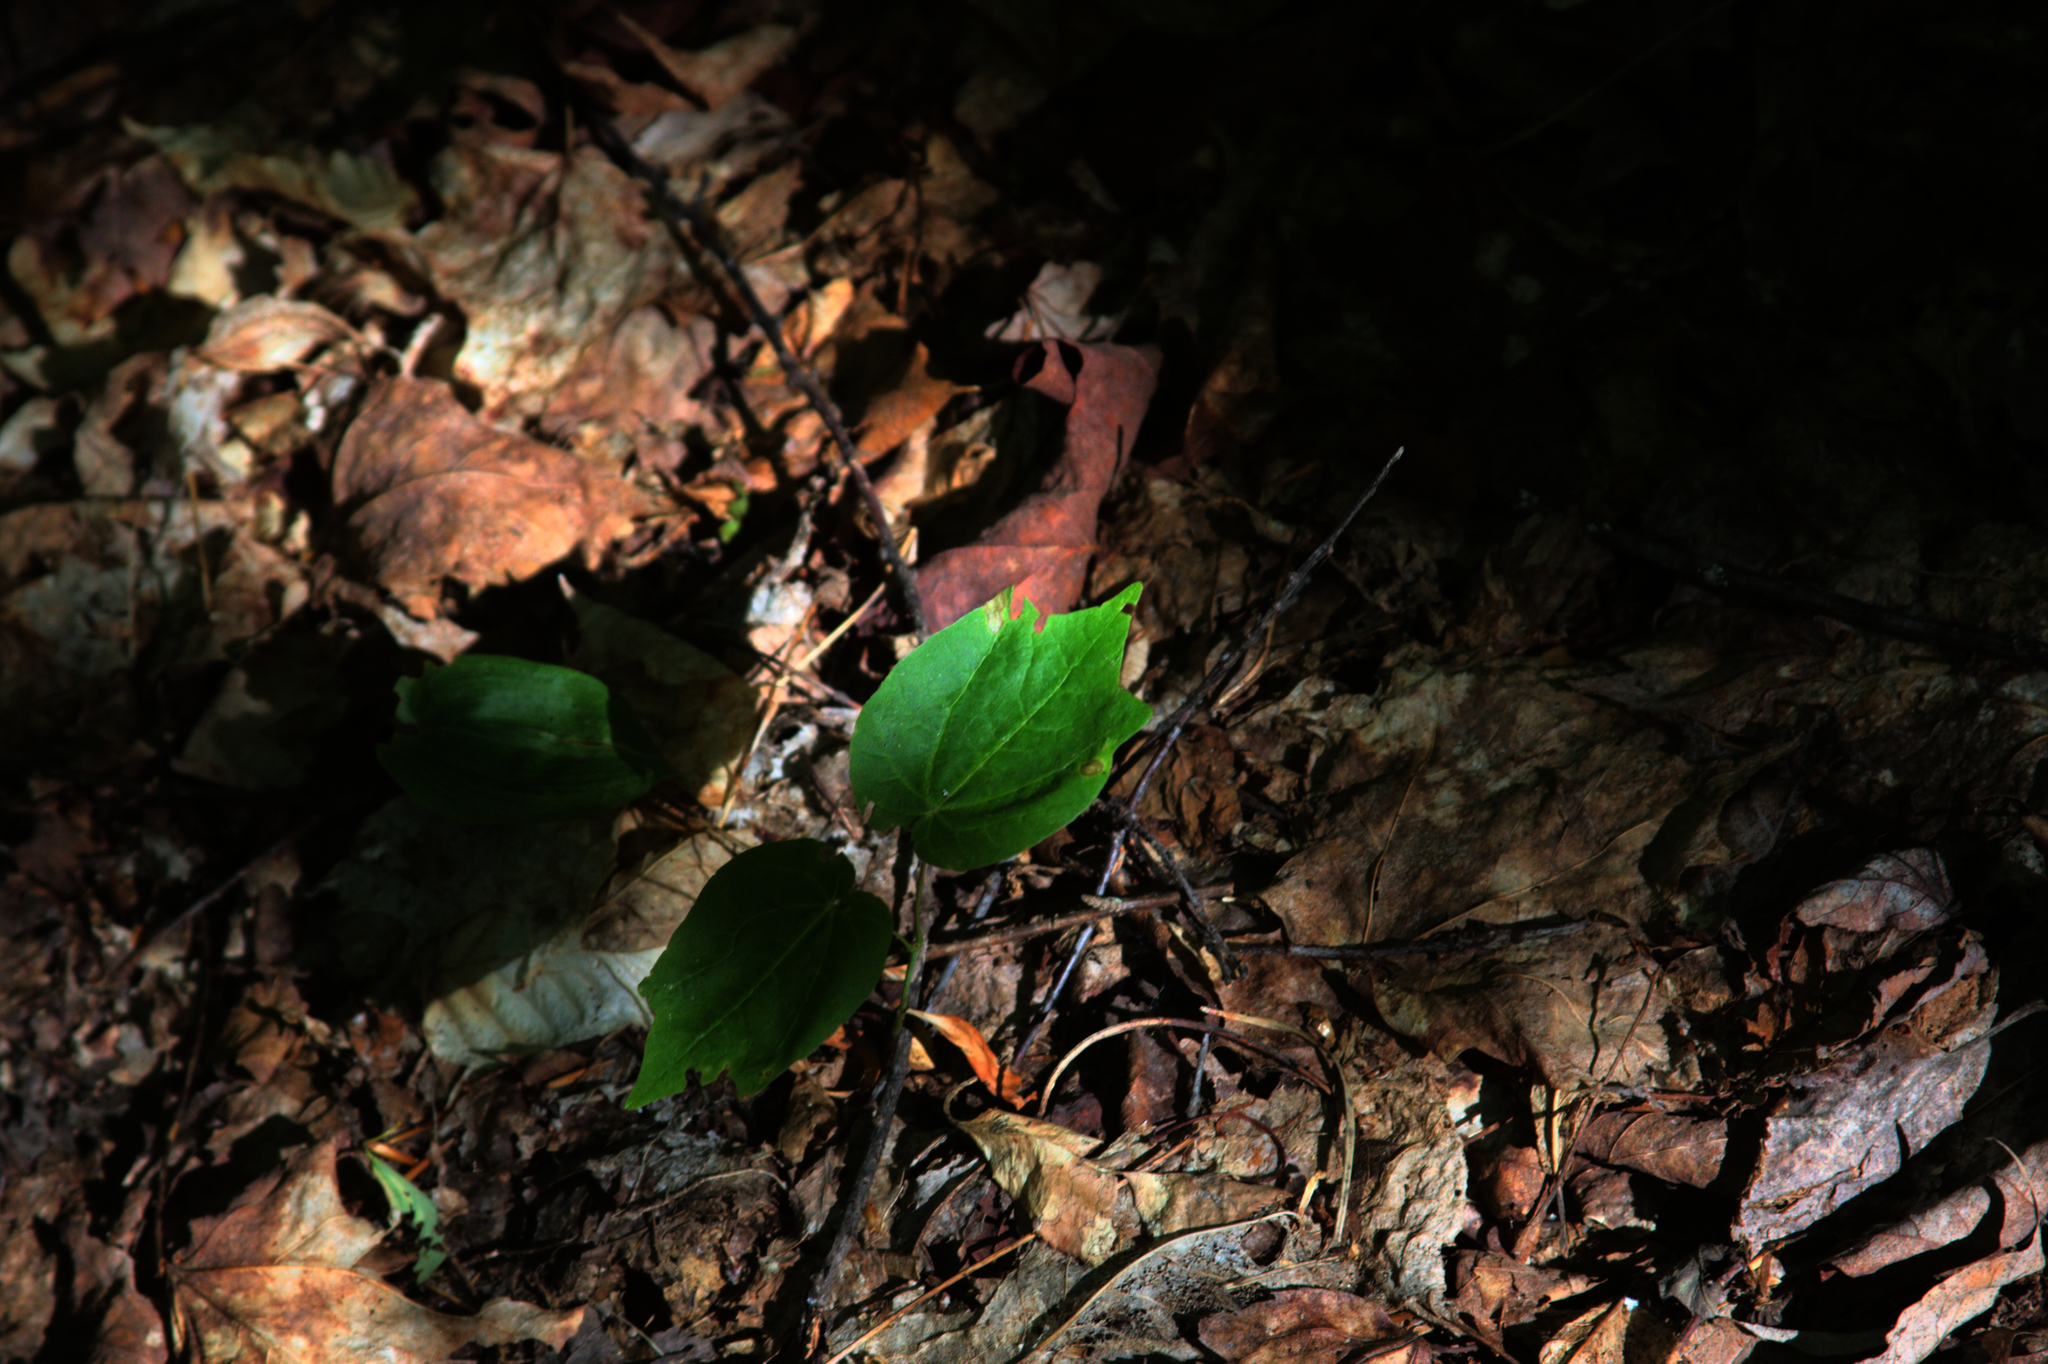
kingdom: Plantae
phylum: Tracheophyta
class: Magnoliopsida
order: Sapindales
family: Sapindaceae
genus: Acer
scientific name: Acer pensylvanicum
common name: Moosewood
